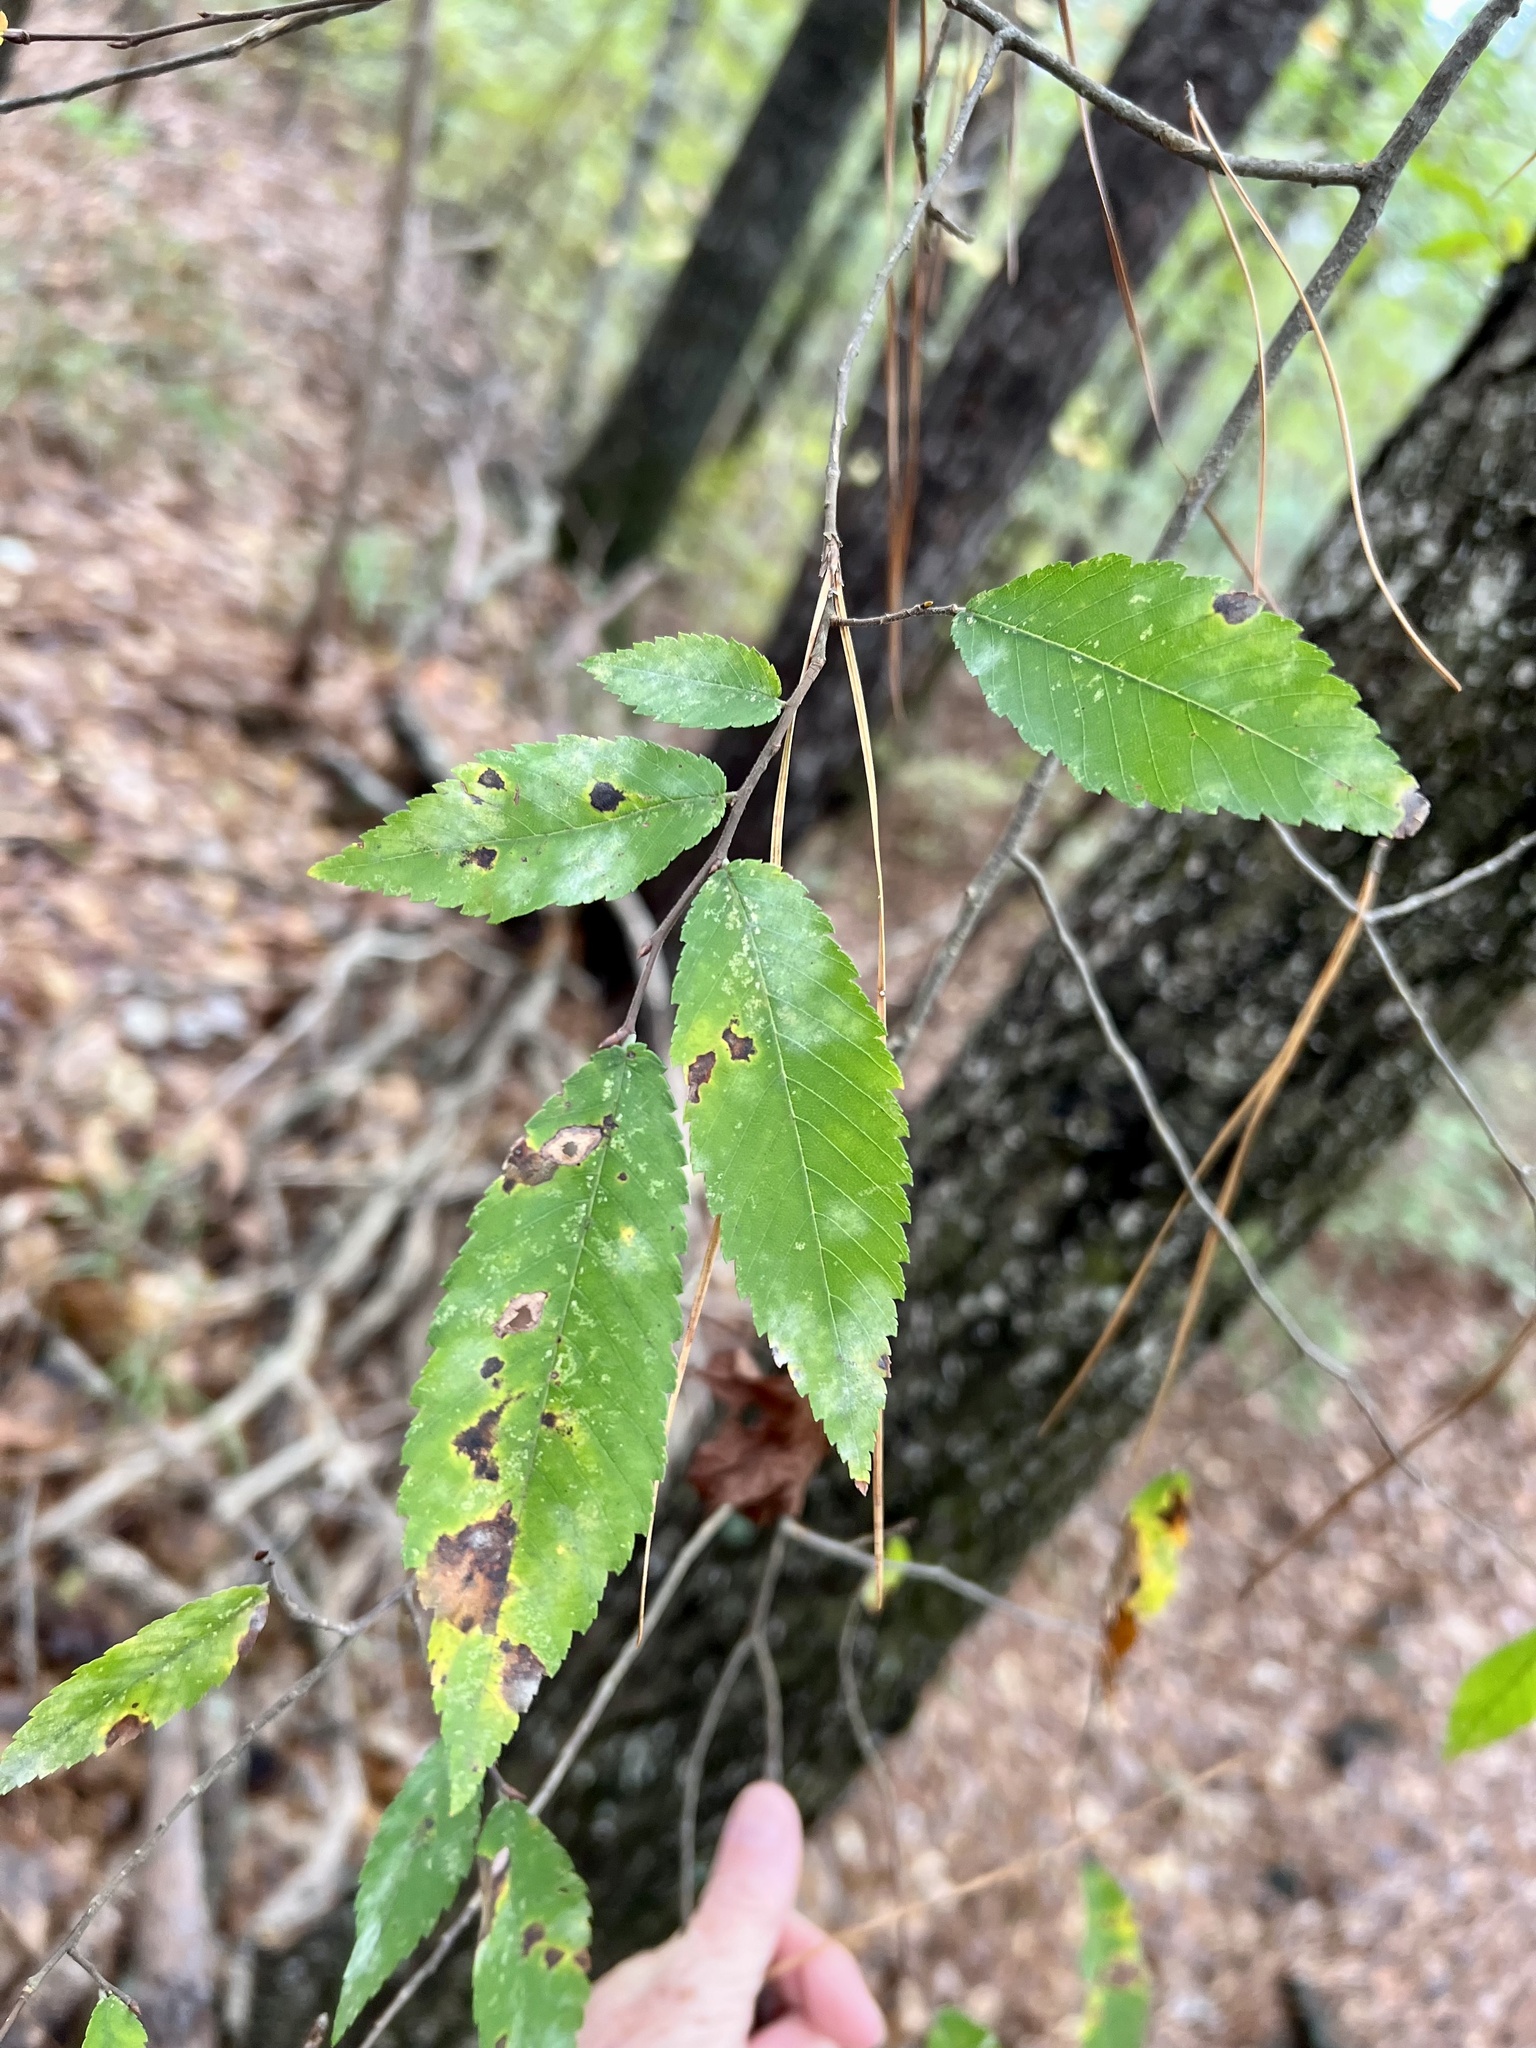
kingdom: Plantae
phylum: Tracheophyta
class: Magnoliopsida
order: Rosales
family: Ulmaceae
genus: Ulmus
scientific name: Ulmus alata
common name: Winged elm
